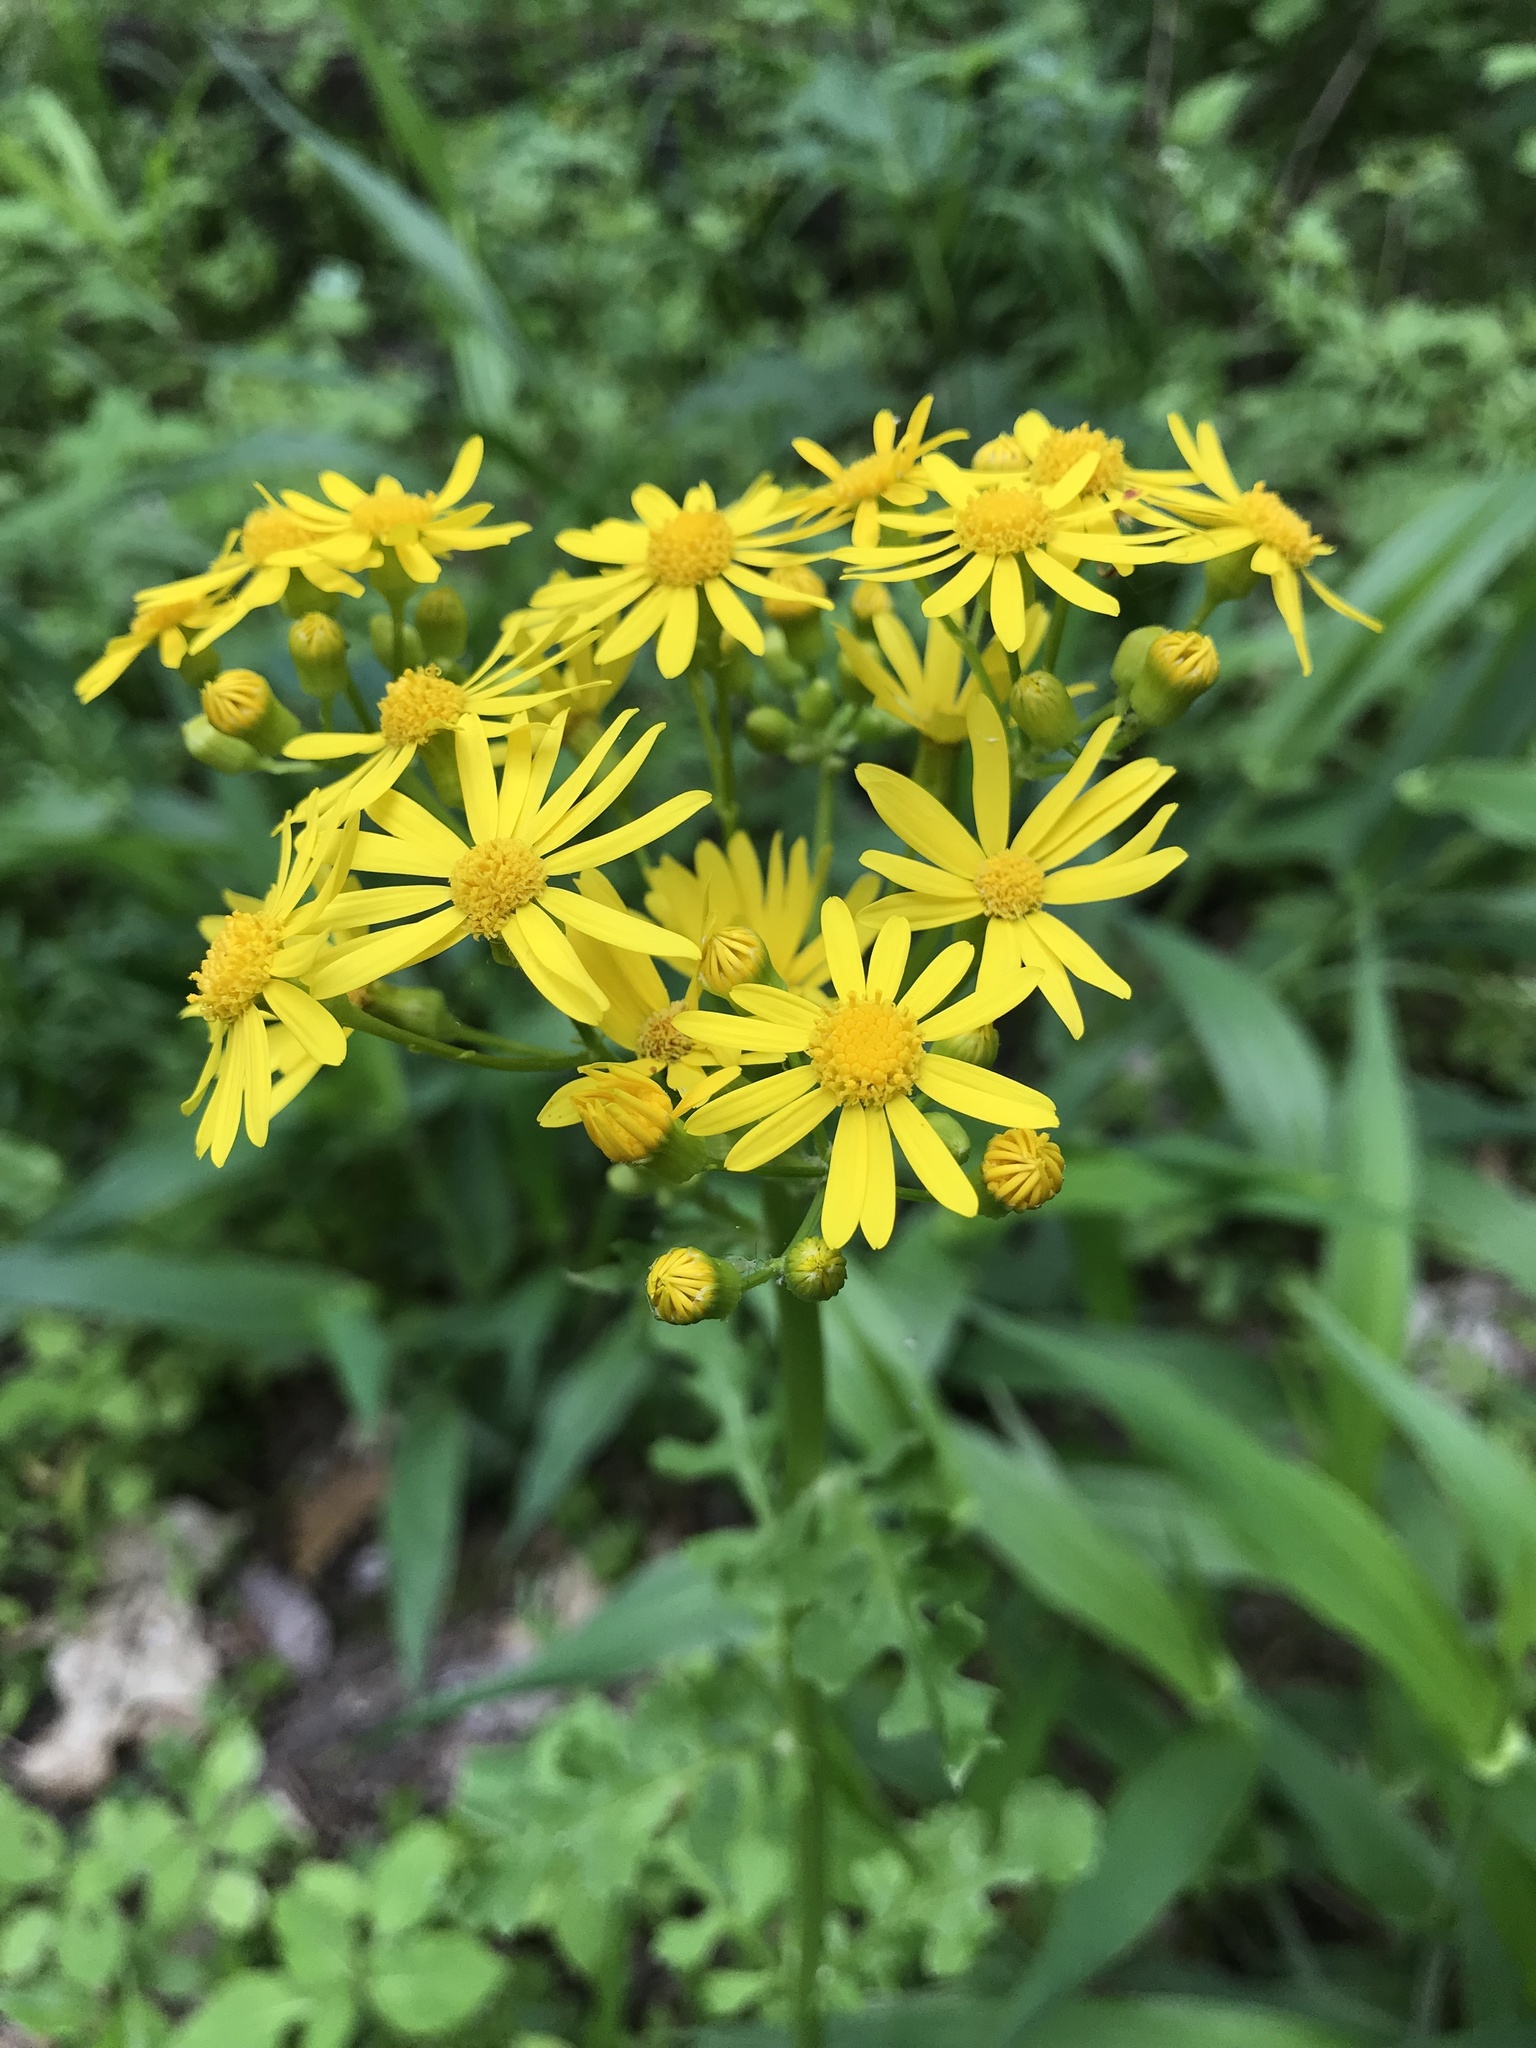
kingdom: Plantae
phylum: Tracheophyta
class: Magnoliopsida
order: Asterales
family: Asteraceae
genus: Packera
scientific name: Packera glabella
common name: Butterweed
